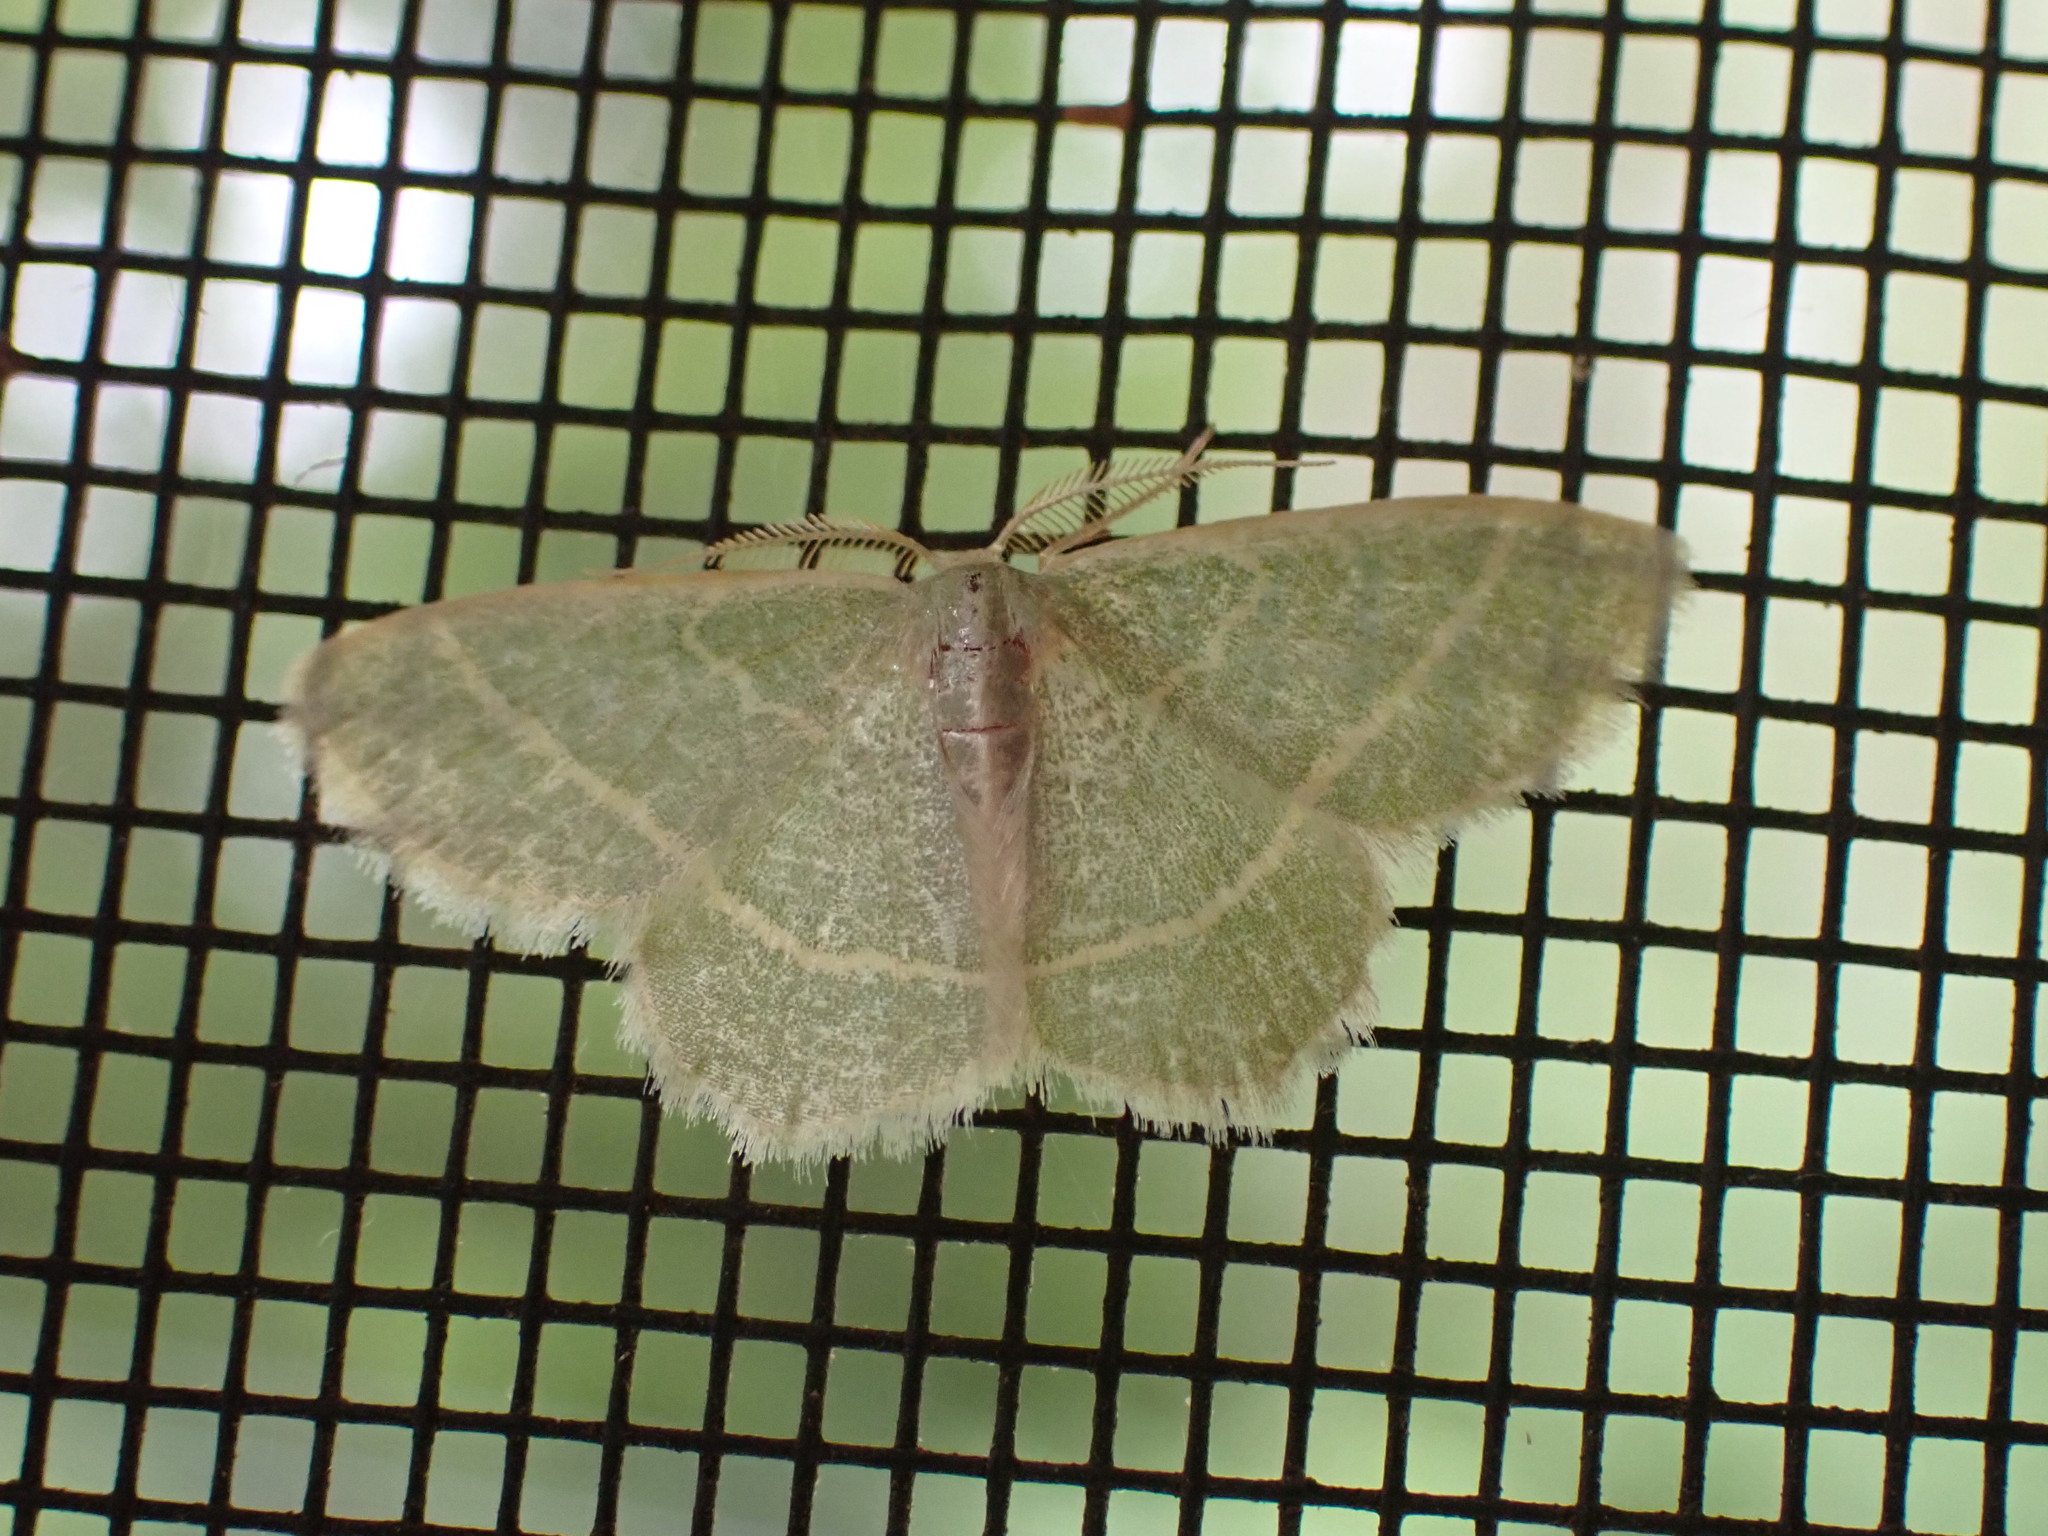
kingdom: Animalia
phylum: Arthropoda
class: Insecta
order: Lepidoptera
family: Geometridae
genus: Chlorochlamys
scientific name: Chlorochlamys chloroleucaria
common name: Blackberry looper
